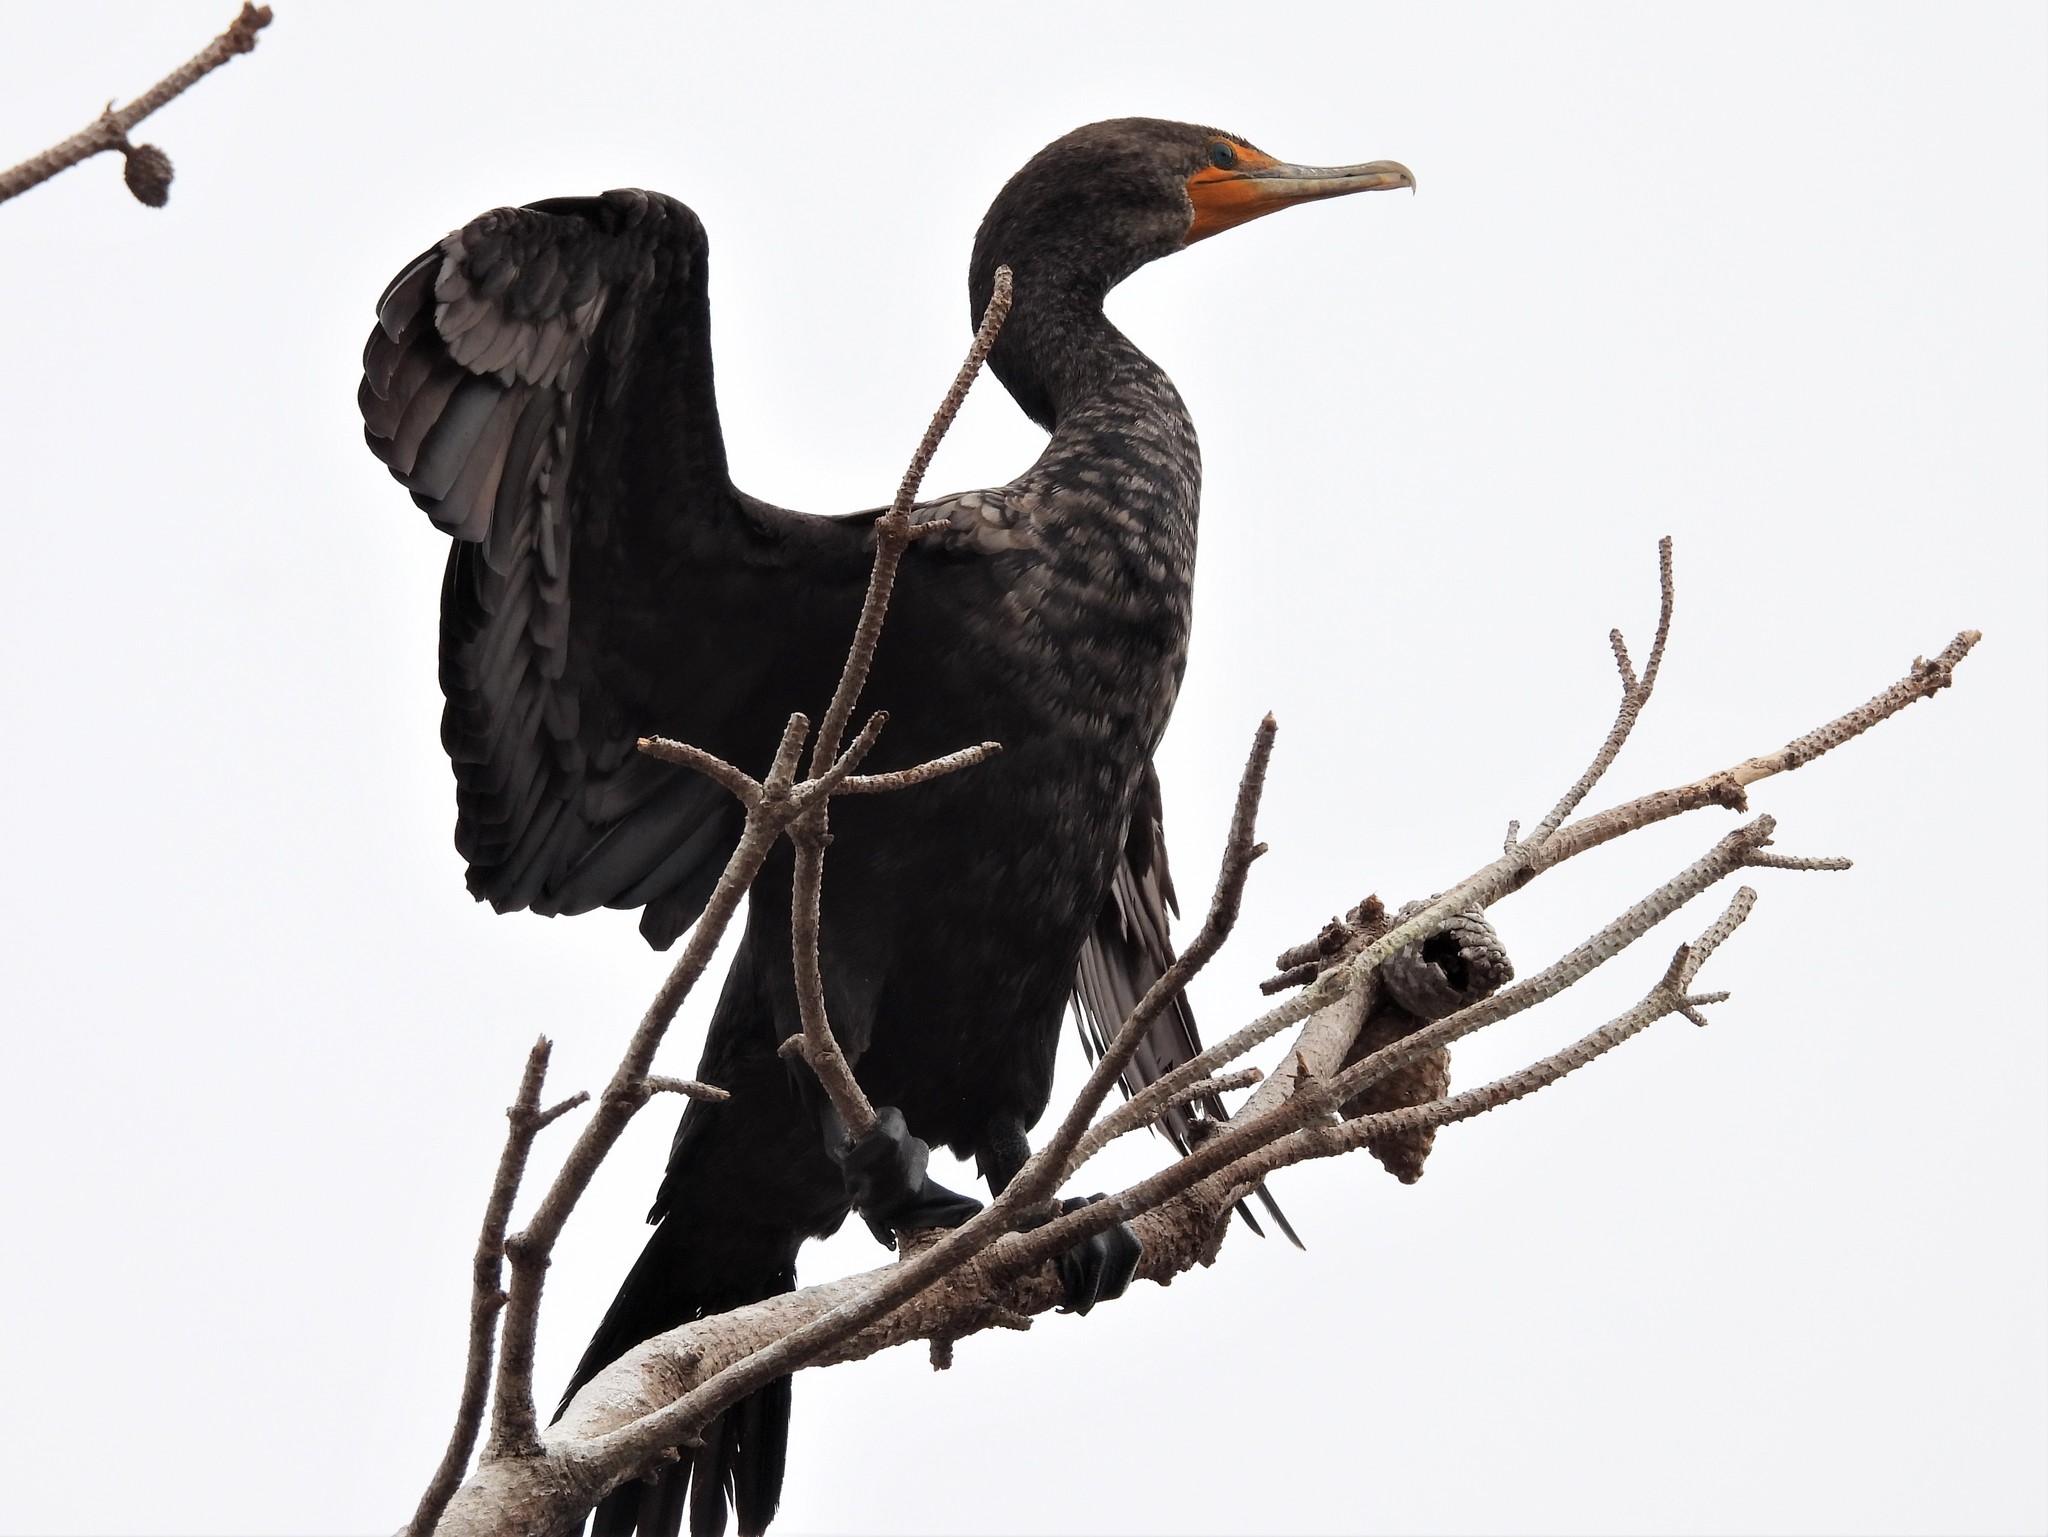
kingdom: Animalia
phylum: Chordata
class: Aves
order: Suliformes
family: Phalacrocoracidae
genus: Phalacrocorax
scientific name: Phalacrocorax auritus
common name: Double-crested cormorant
